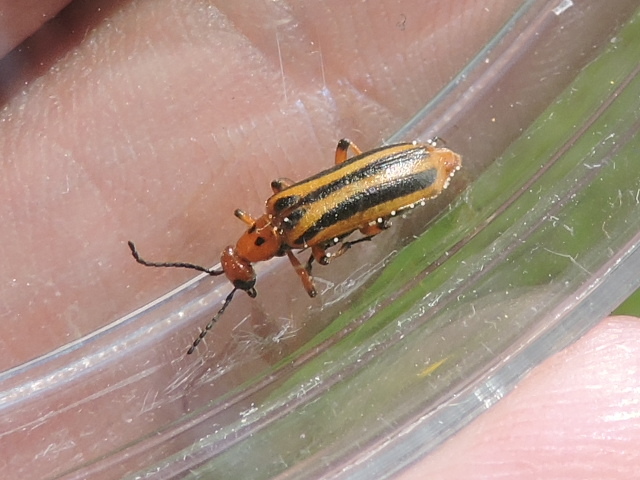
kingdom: Animalia
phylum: Arthropoda
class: Insecta
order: Coleoptera
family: Meloidae
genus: Pyrota
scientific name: Pyrota discoidea
